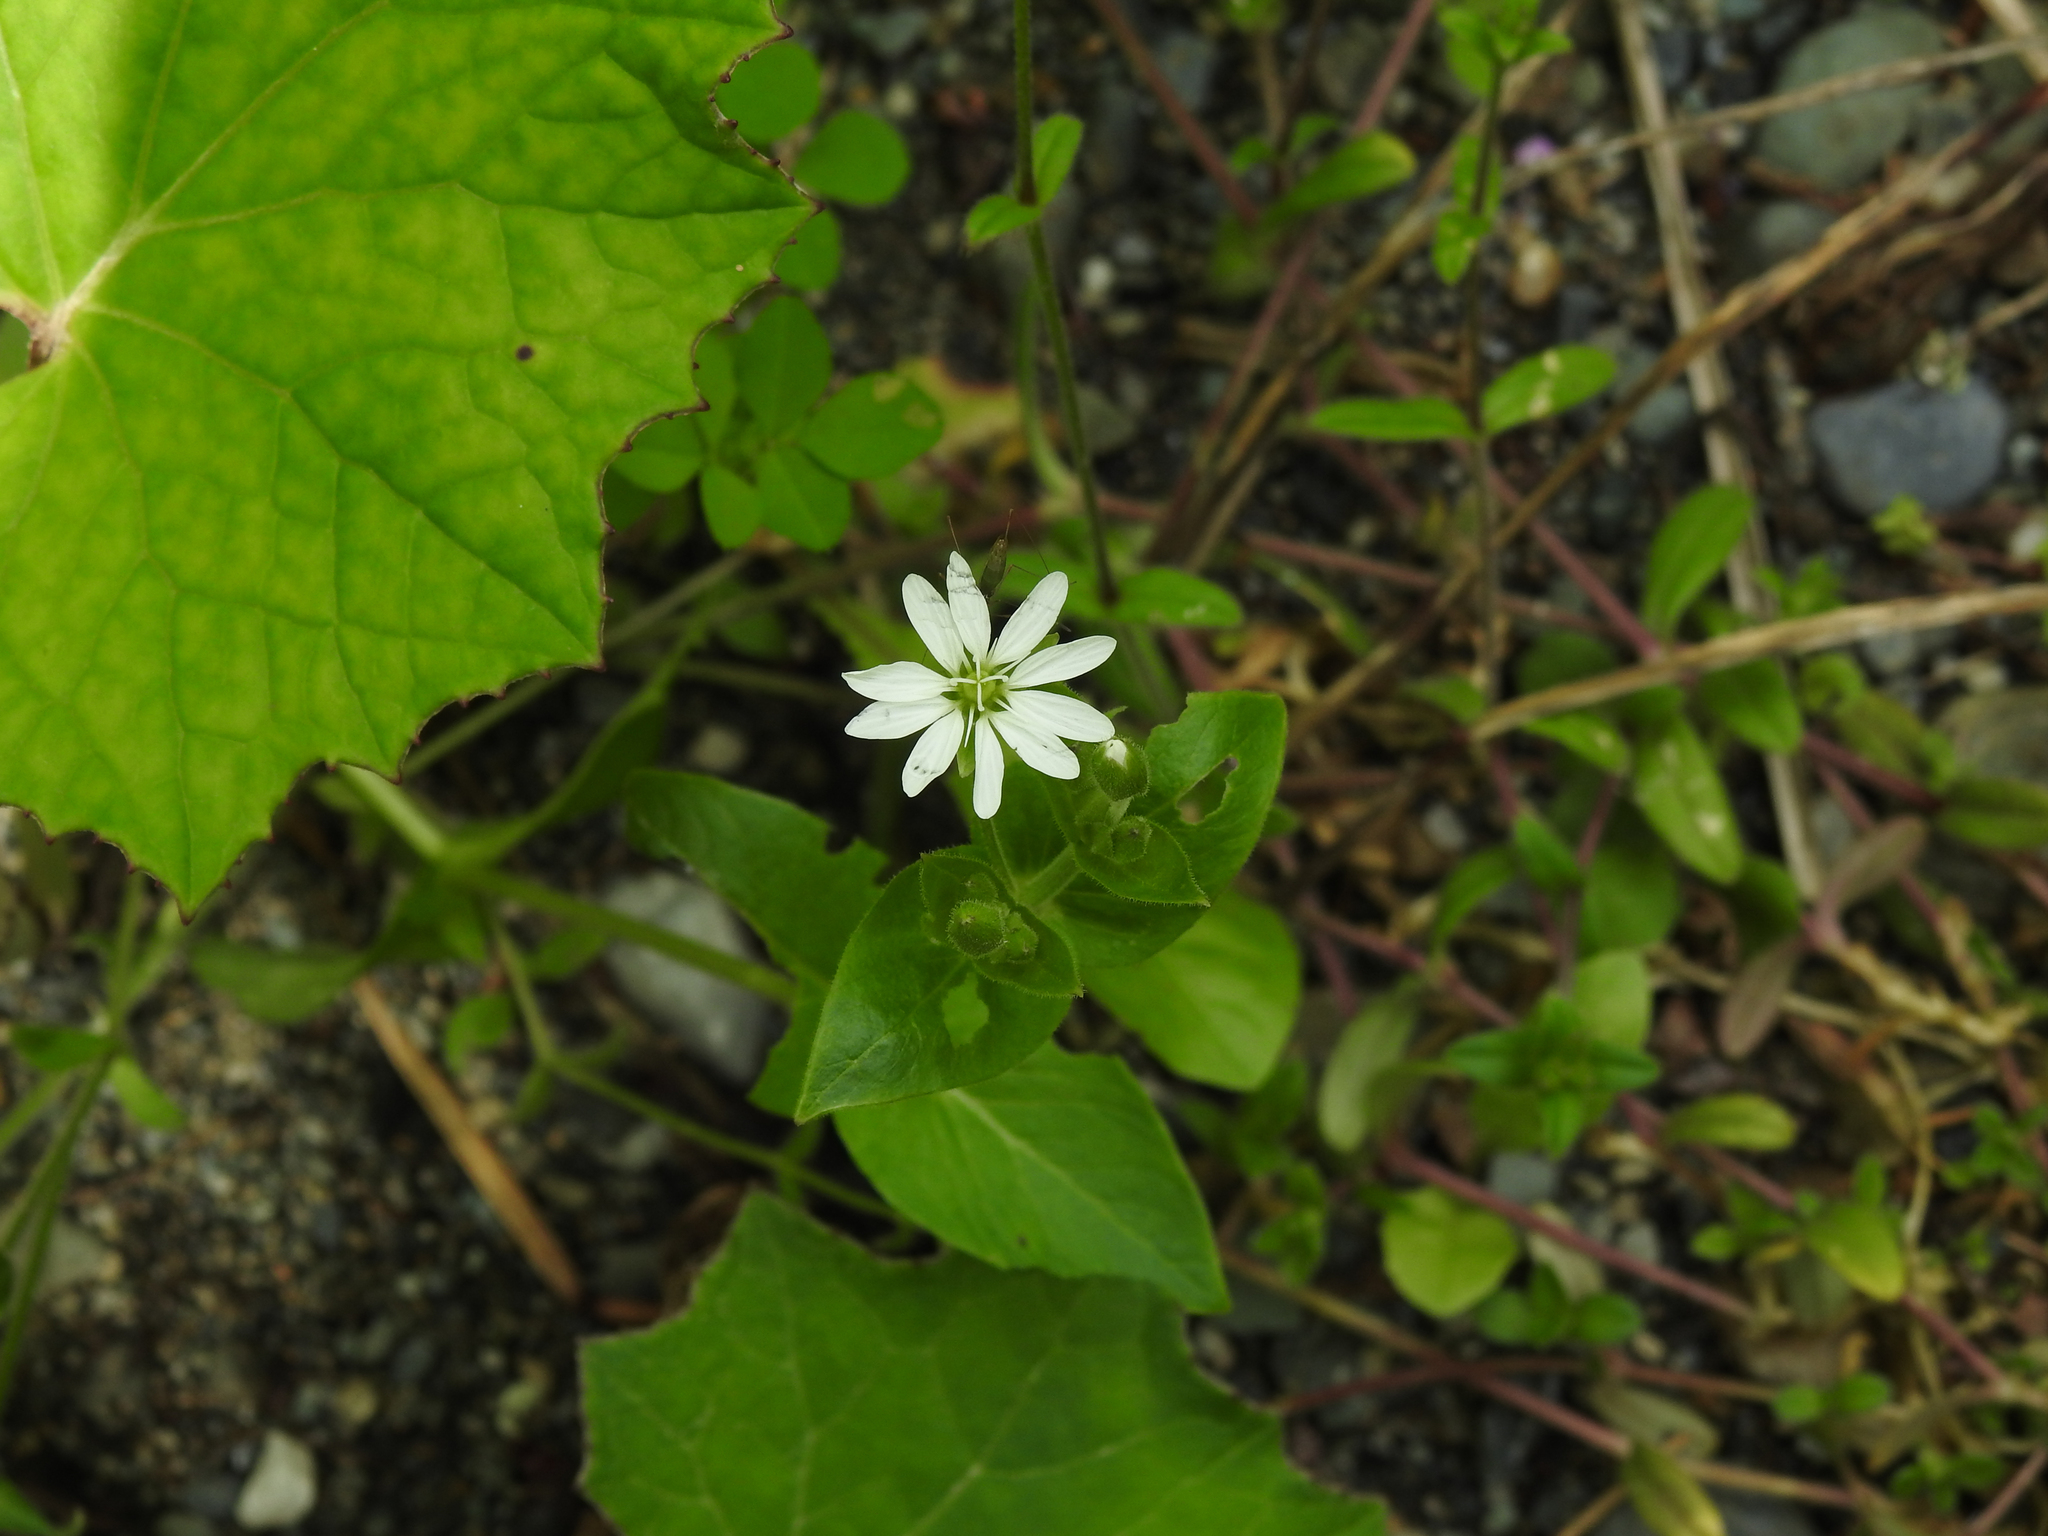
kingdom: Plantae
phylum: Tracheophyta
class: Magnoliopsida
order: Caryophyllales
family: Caryophyllaceae
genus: Stellaria
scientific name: Stellaria aquatica
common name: Water chickweed
